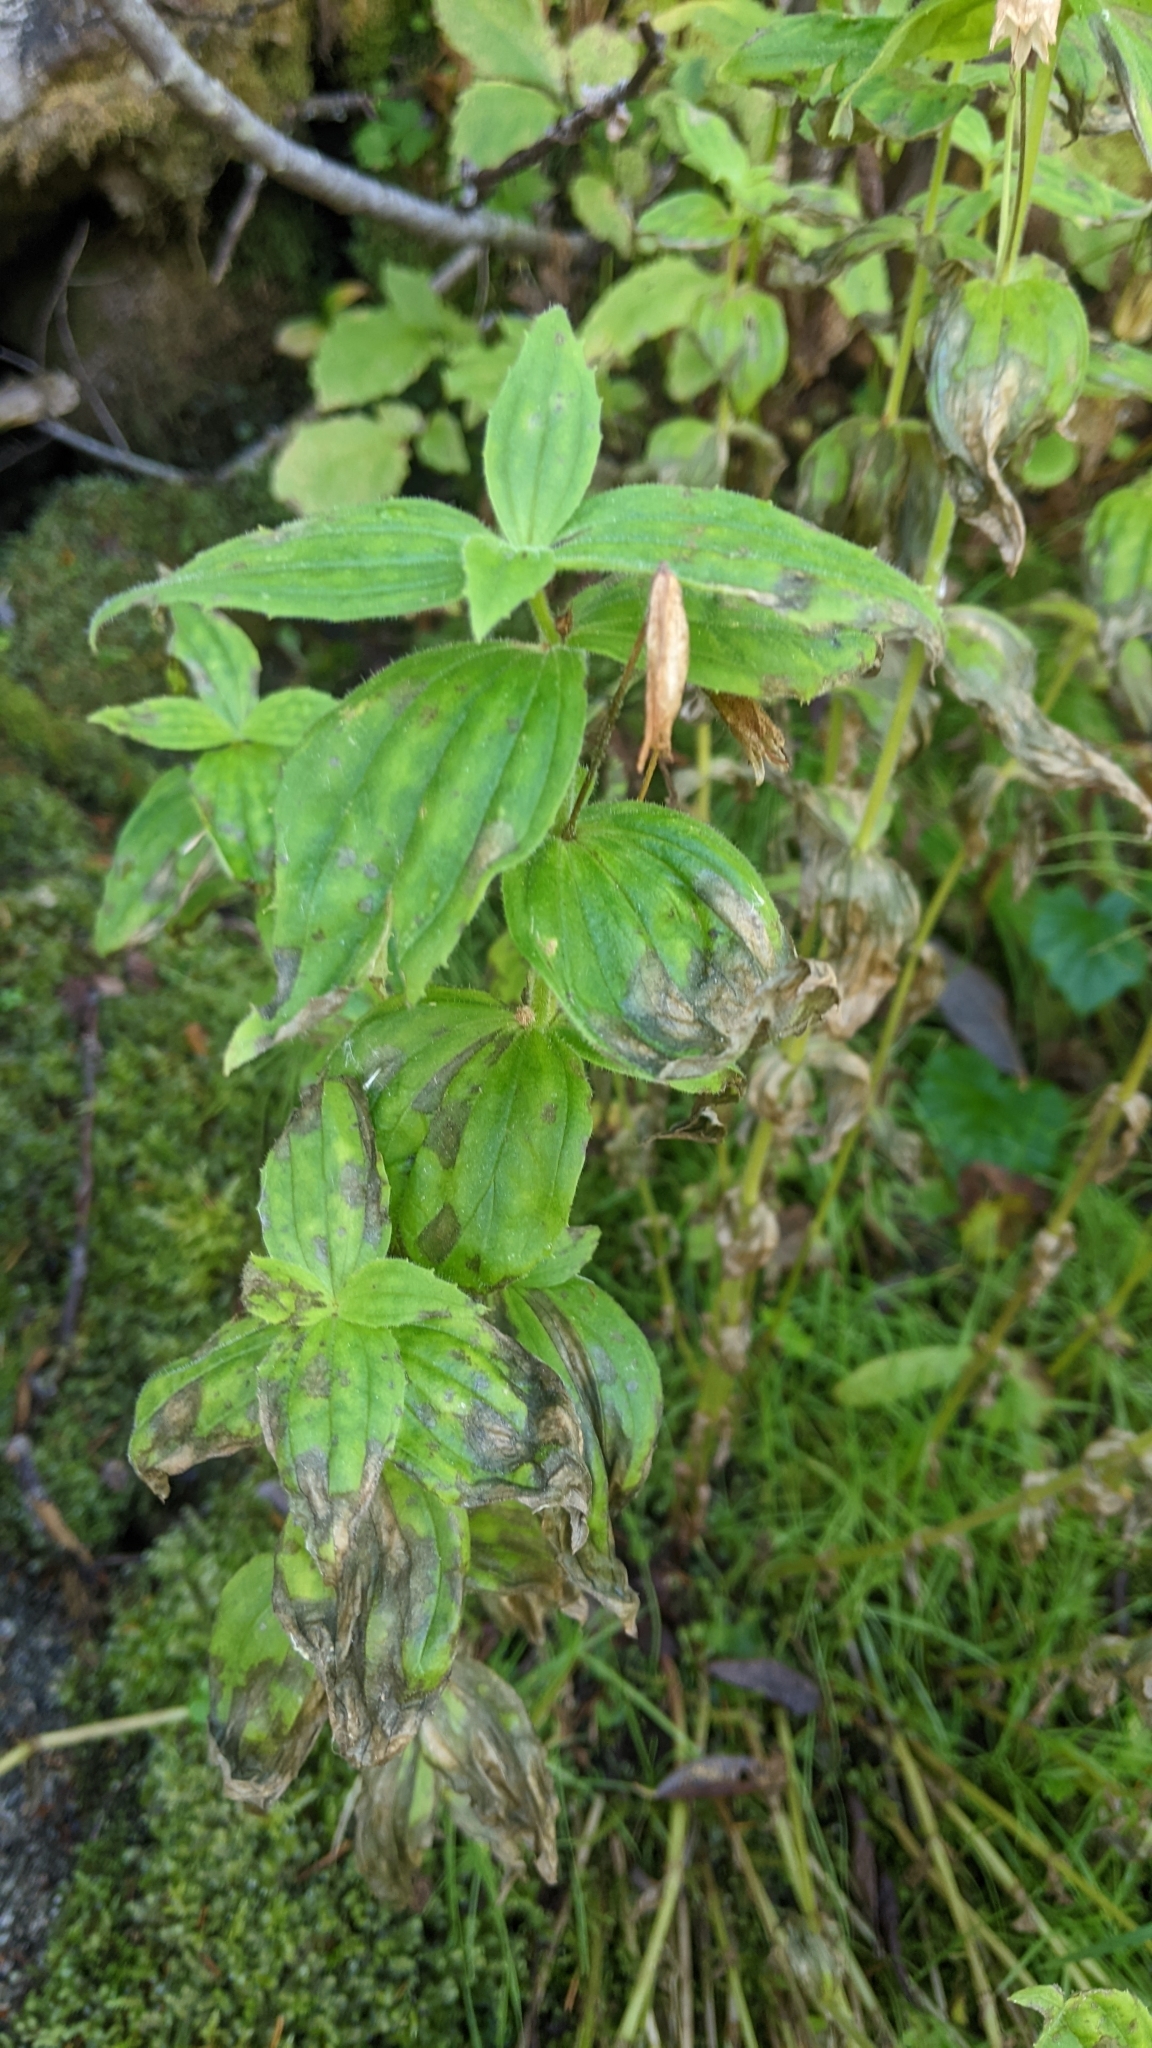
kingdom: Plantae
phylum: Tracheophyta
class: Magnoliopsida
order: Lamiales
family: Phrymaceae
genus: Erythranthe
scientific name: Erythranthe lewisii
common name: Lewis's monkey-flower
